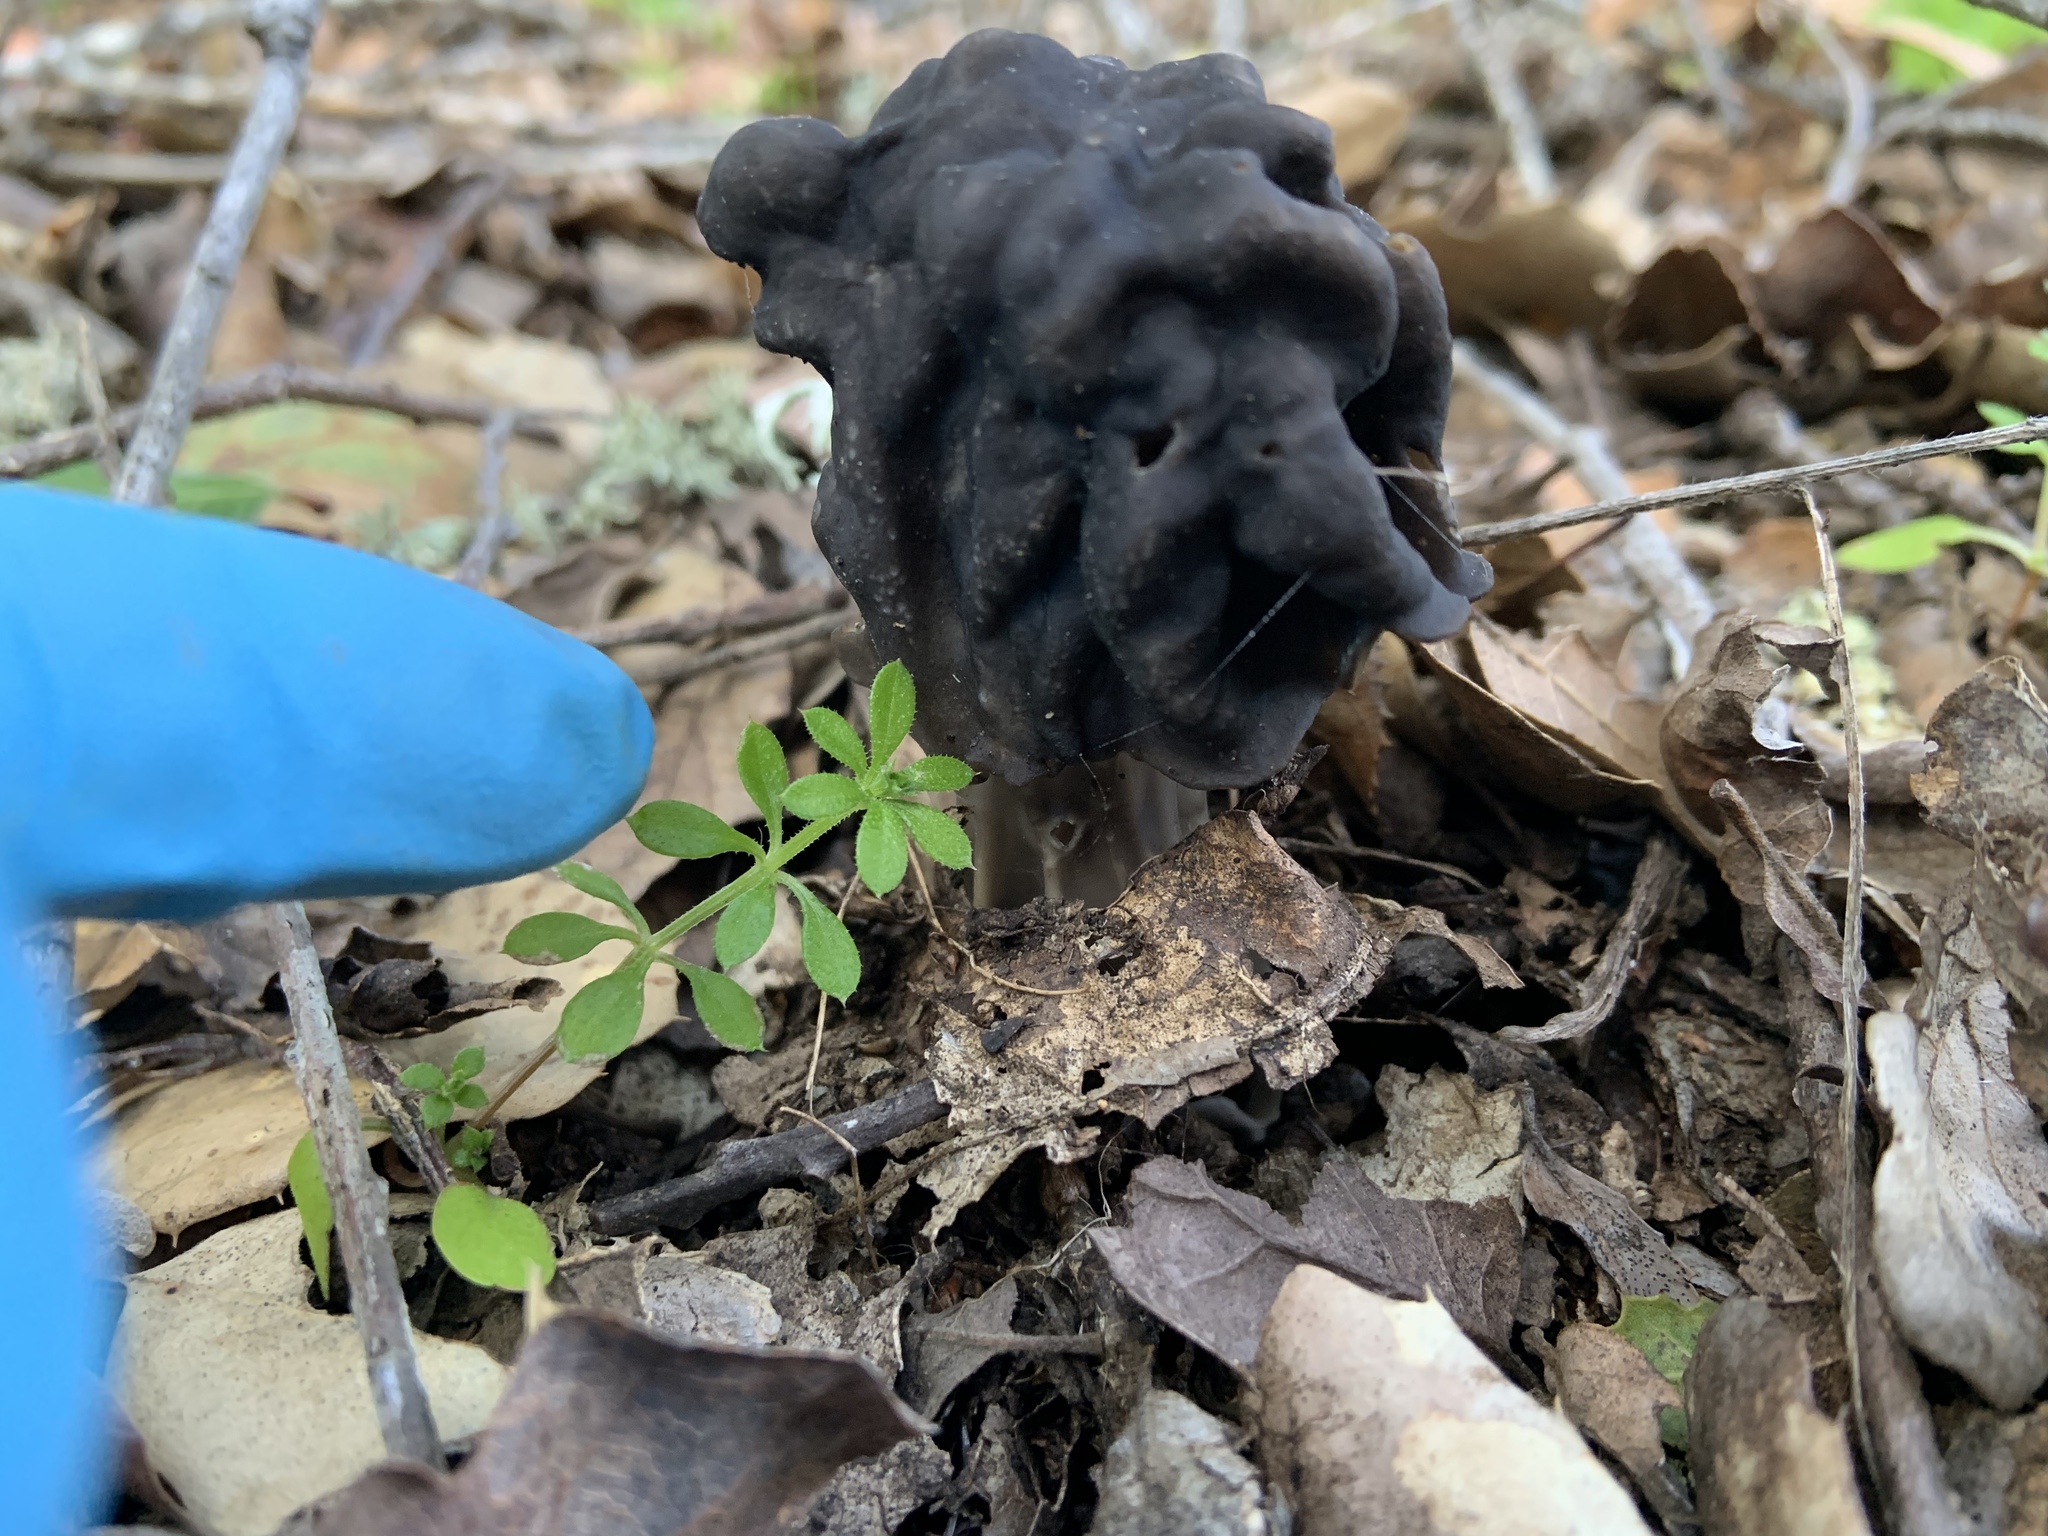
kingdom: Fungi
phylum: Ascomycota
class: Pezizomycetes
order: Pezizales
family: Helvellaceae
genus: Helvella
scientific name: Helvella dryophila
